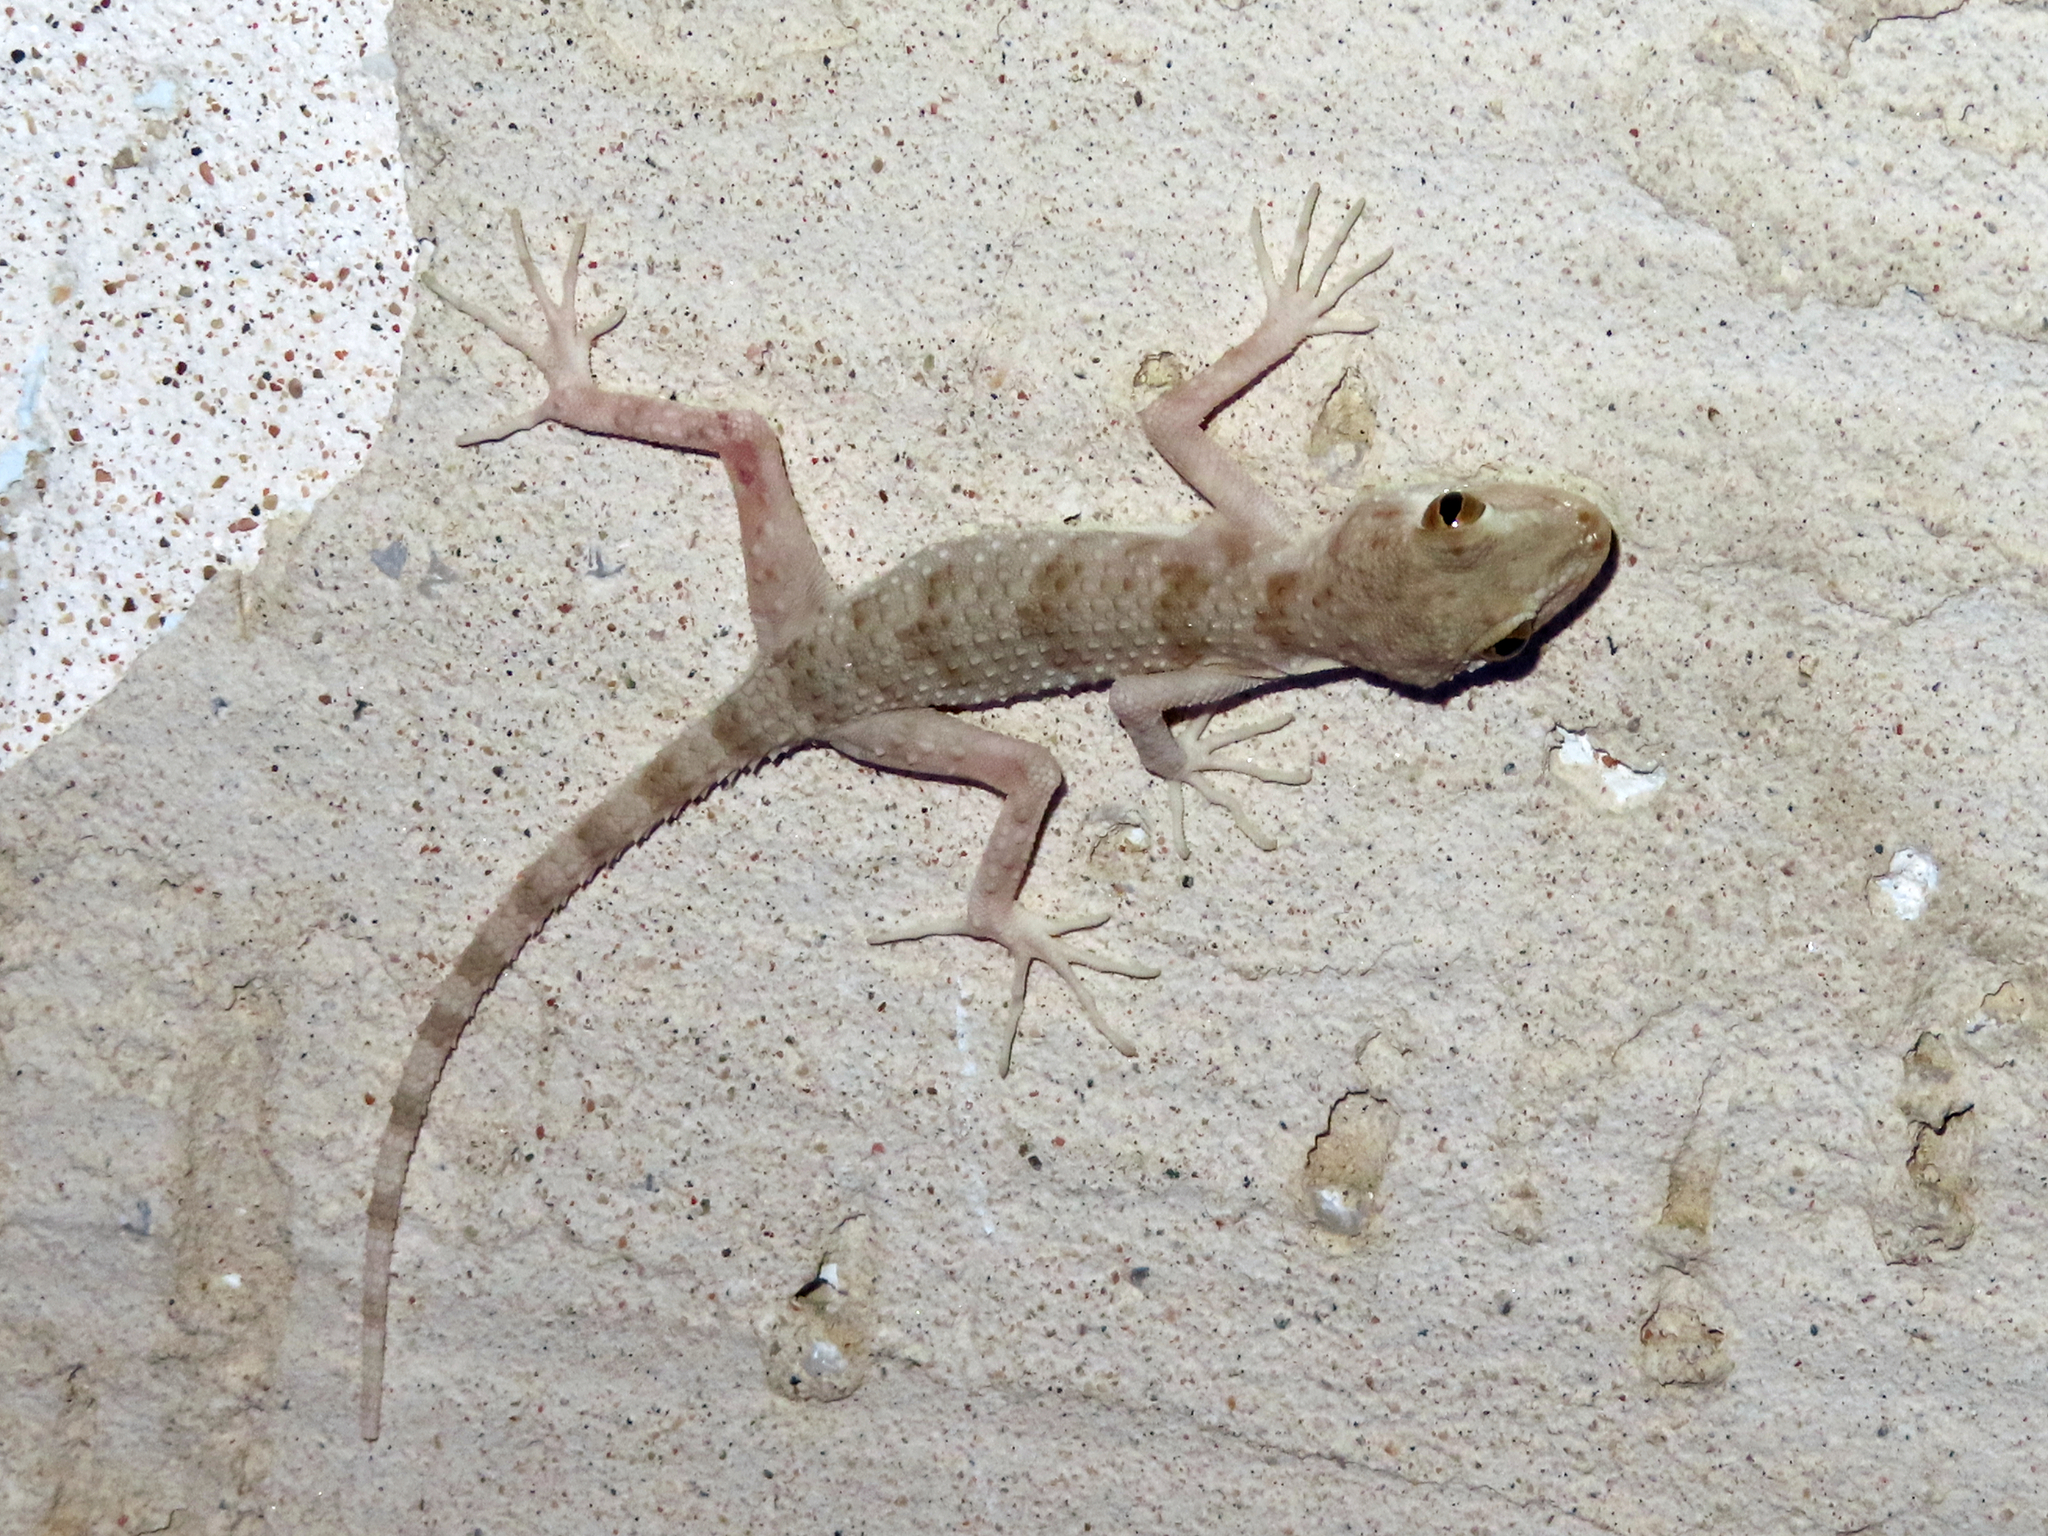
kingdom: Animalia
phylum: Chordata
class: Squamata
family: Gekkonidae
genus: Tenuidactylus
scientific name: Tenuidactylus caspius
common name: Caspian bent-toed gecko
